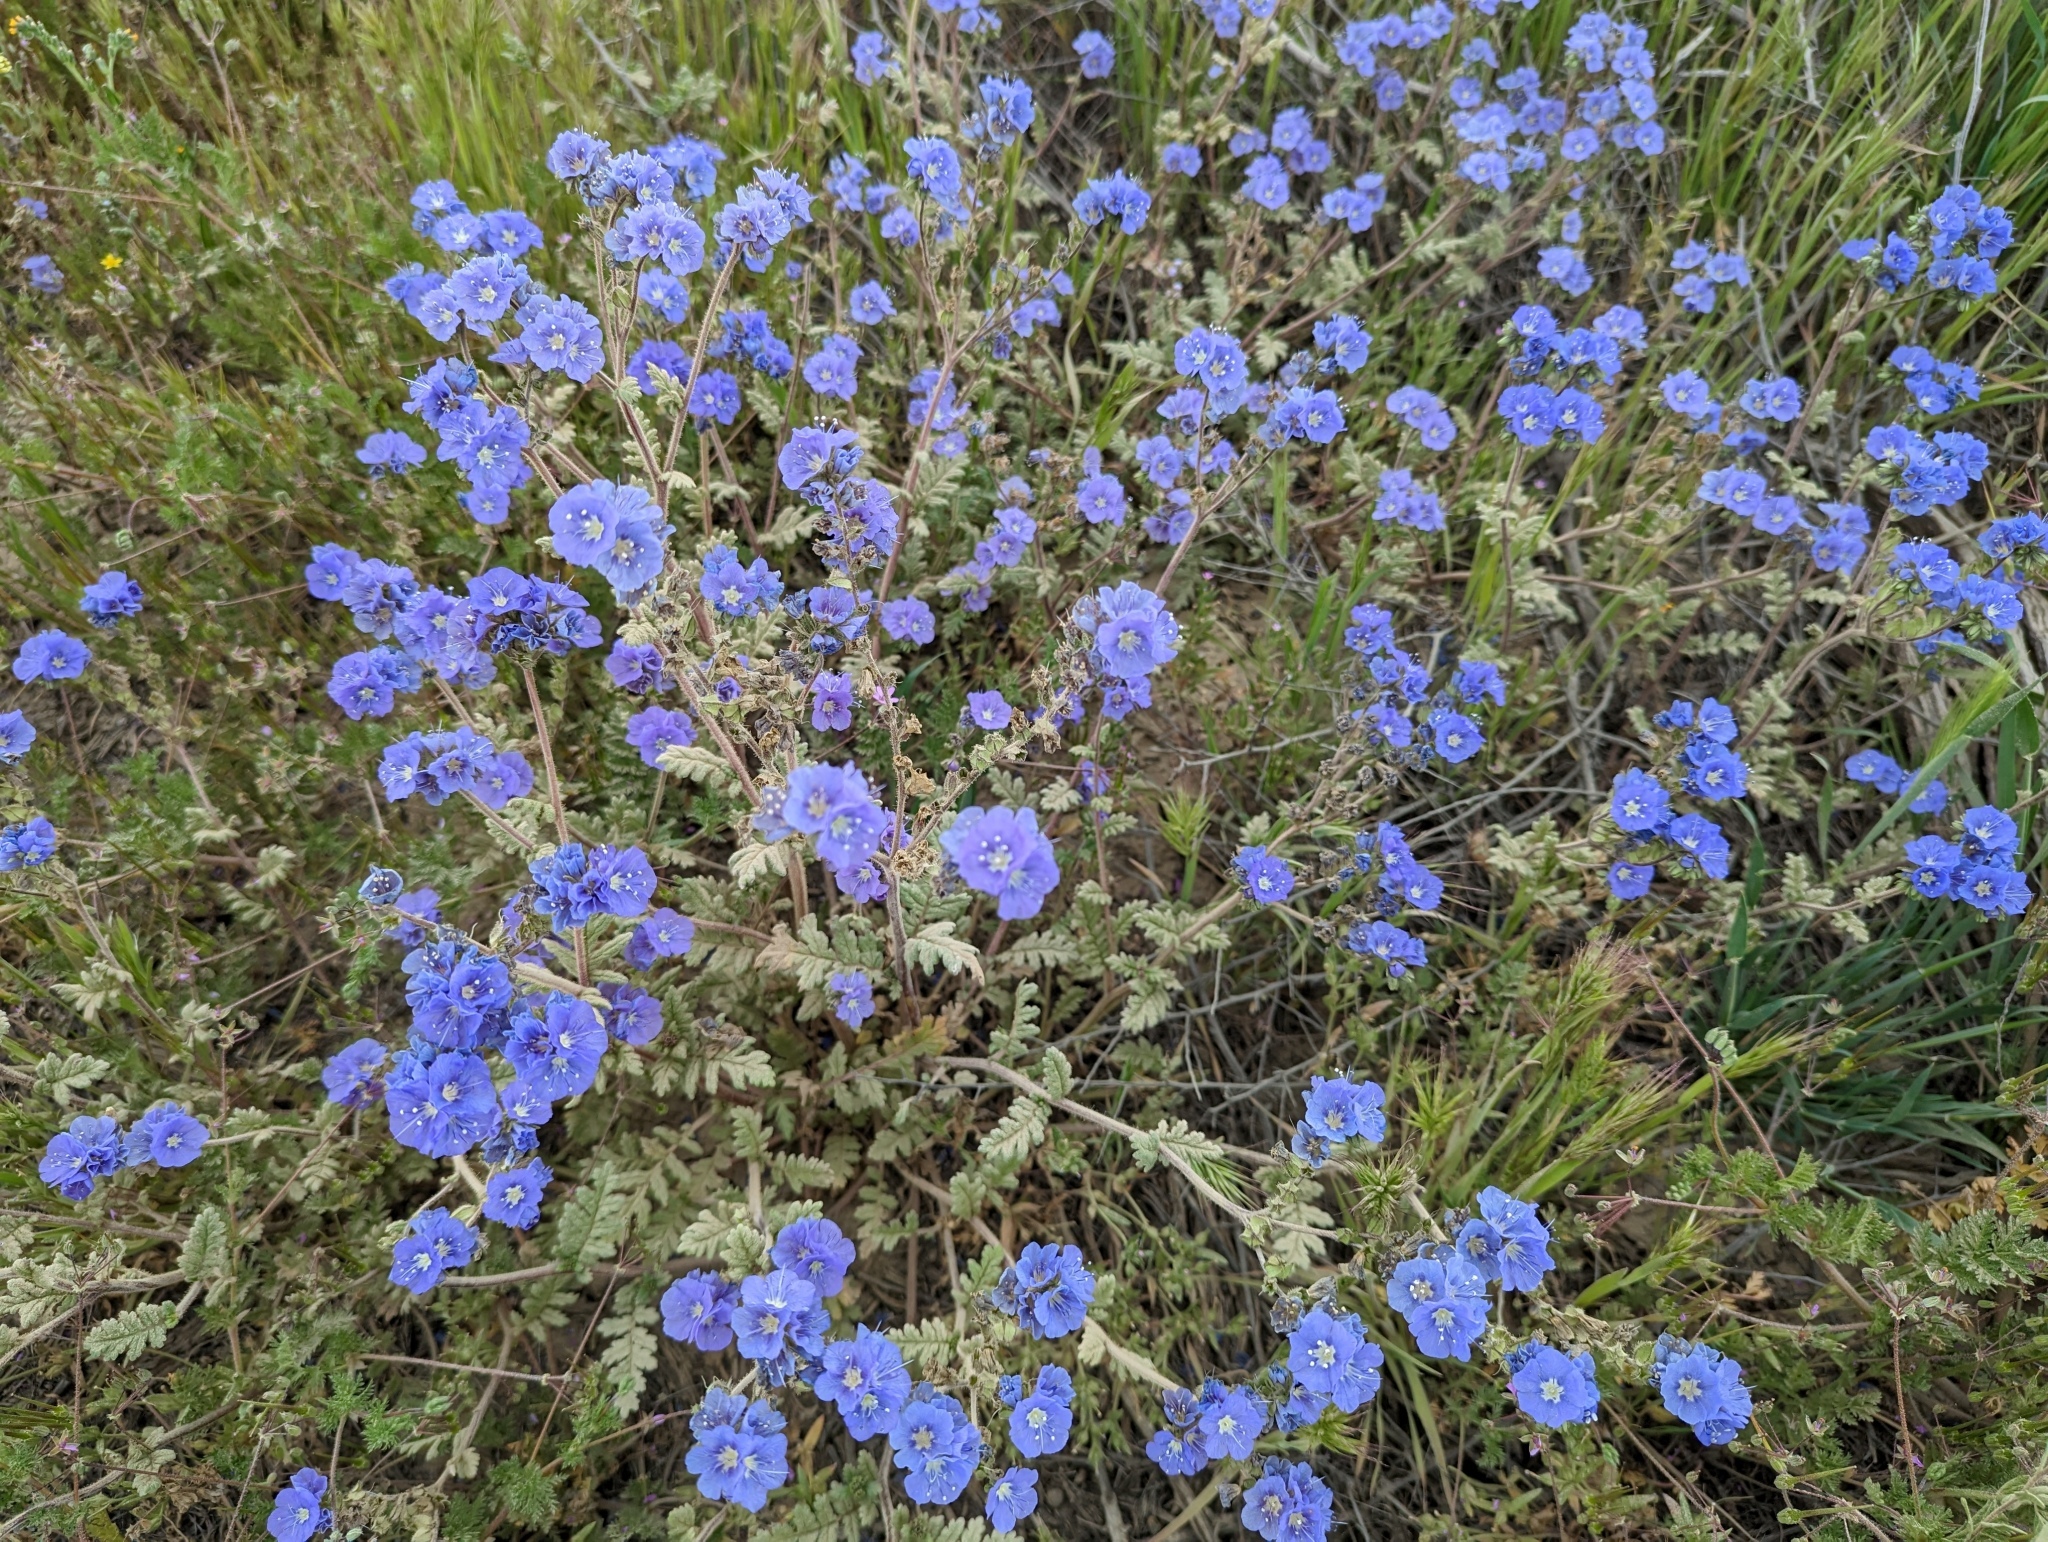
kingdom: Plantae
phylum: Tracheophyta
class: Magnoliopsida
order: Boraginales
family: Hydrophyllaceae
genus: Phacelia
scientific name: Phacelia ciliata
